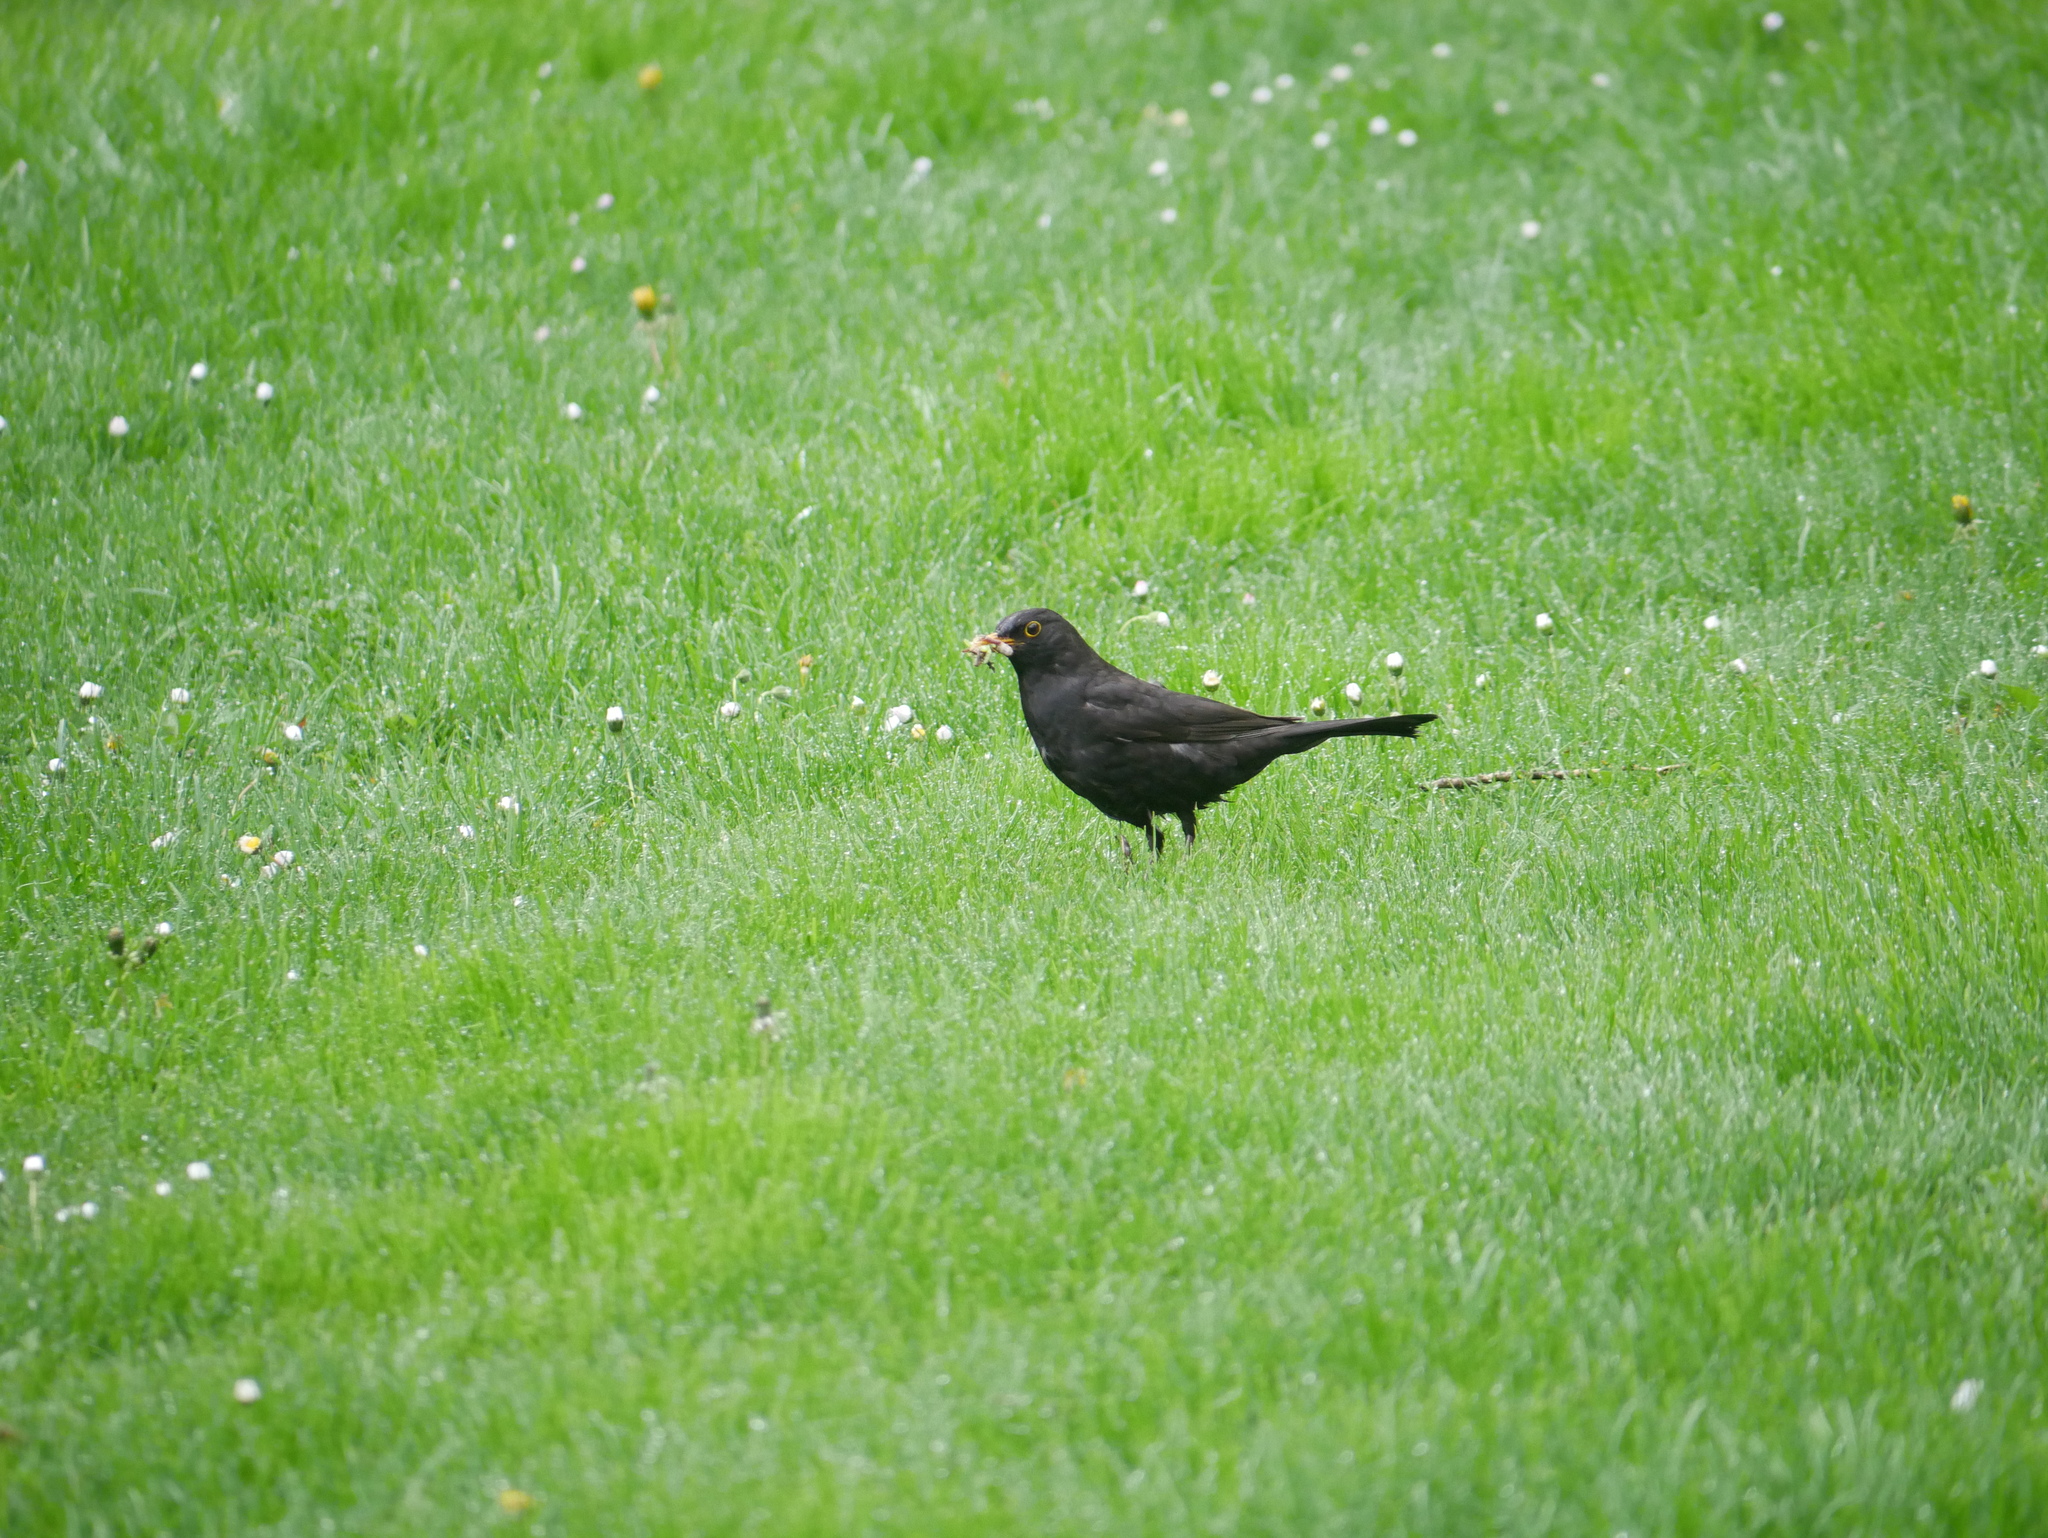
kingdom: Animalia
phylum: Chordata
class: Aves
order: Passeriformes
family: Turdidae
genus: Turdus
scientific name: Turdus merula
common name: Common blackbird
